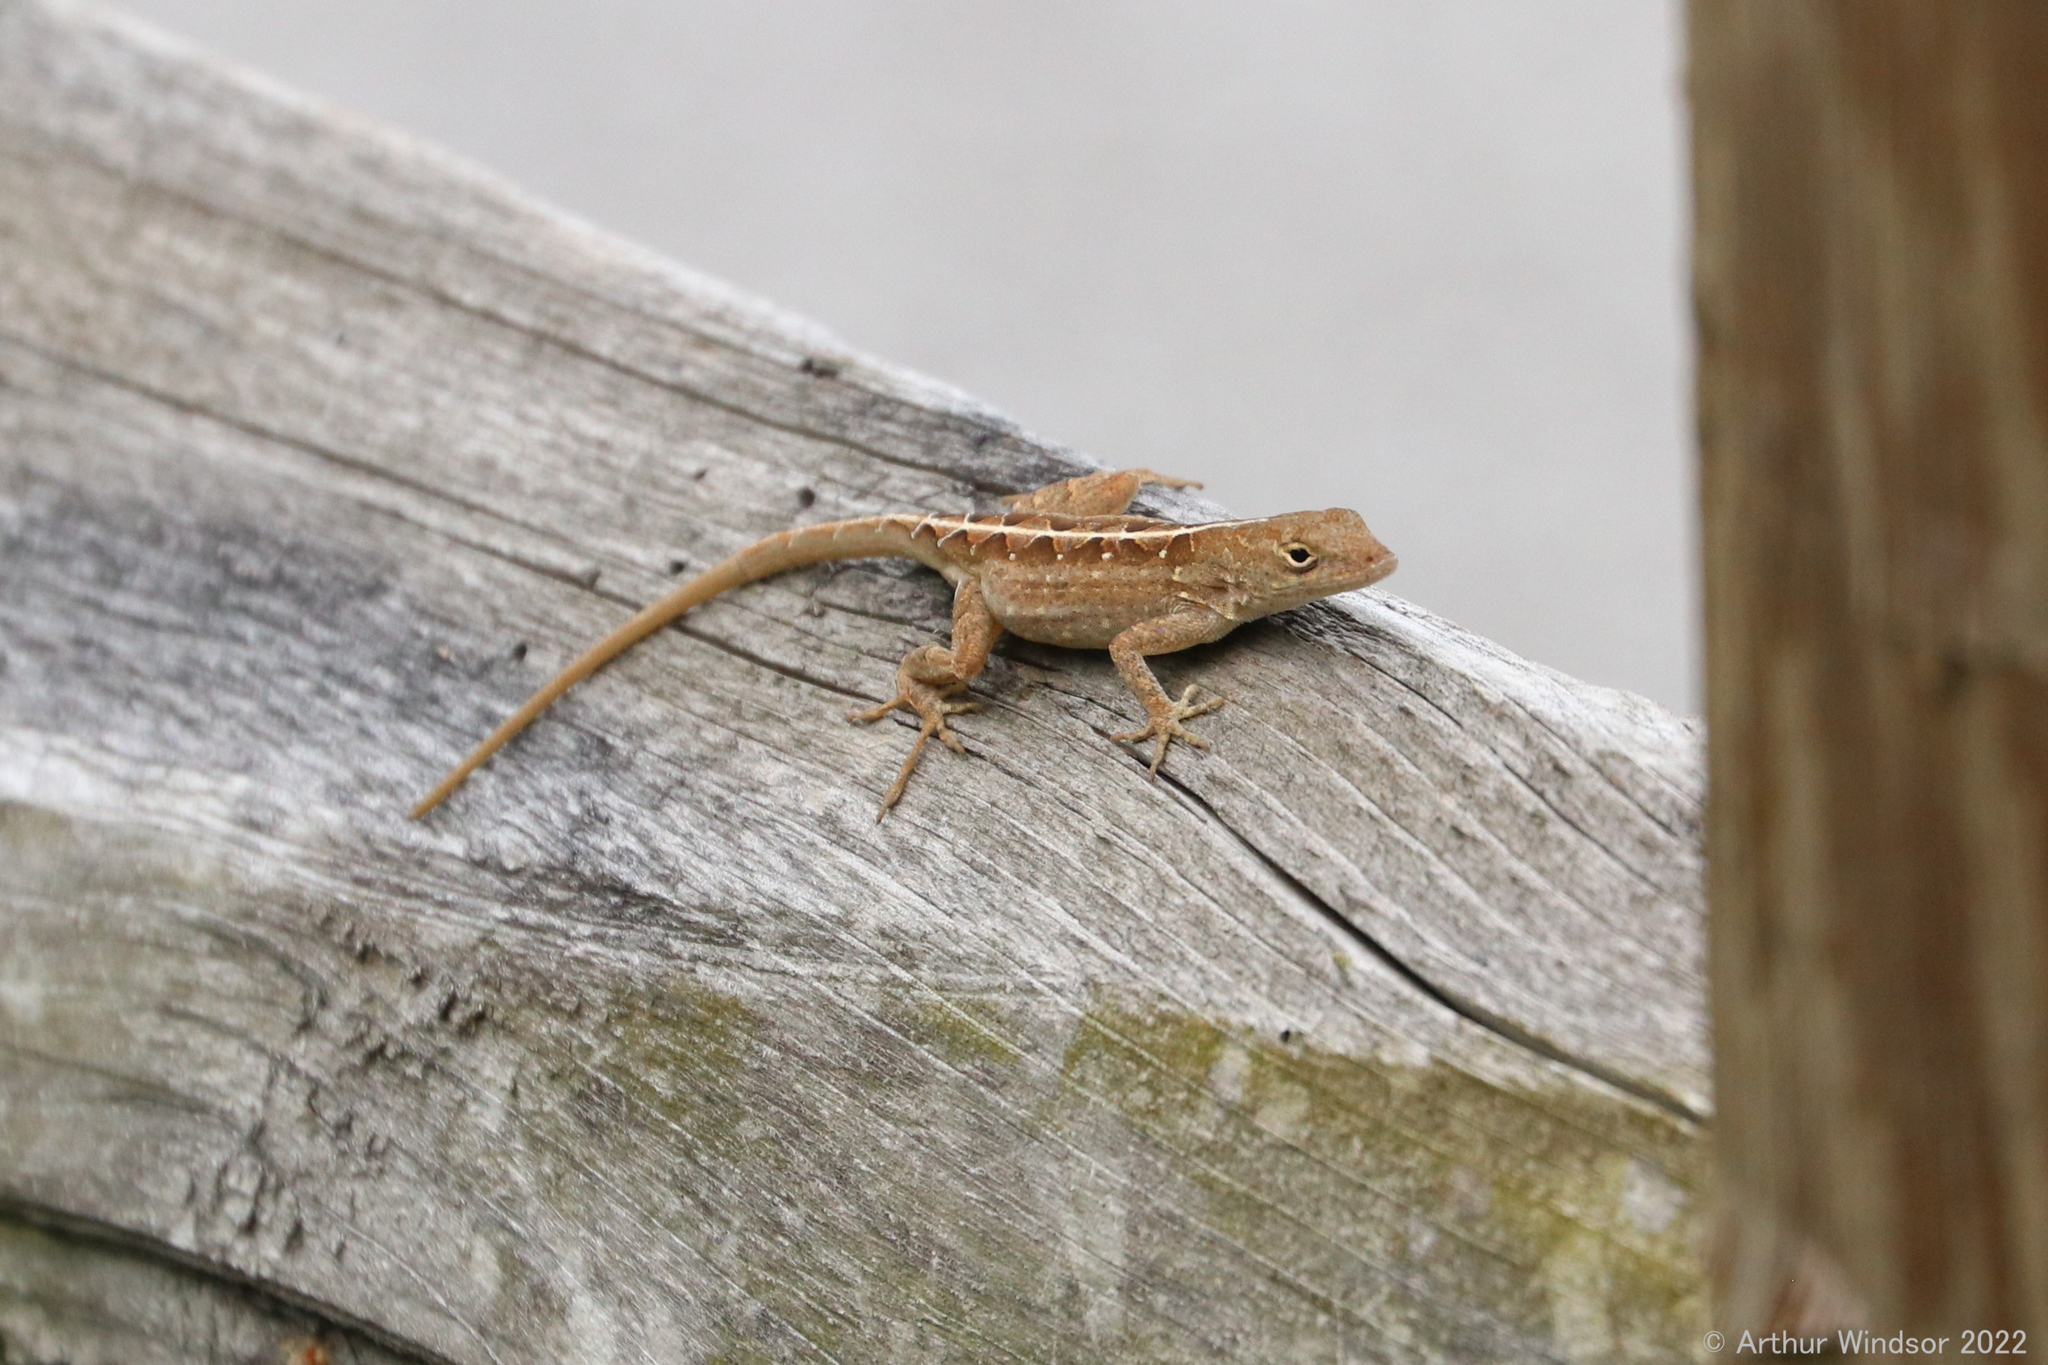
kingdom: Animalia
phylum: Chordata
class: Squamata
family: Dactyloidae
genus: Anolis
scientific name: Anolis sagrei
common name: Brown anole
